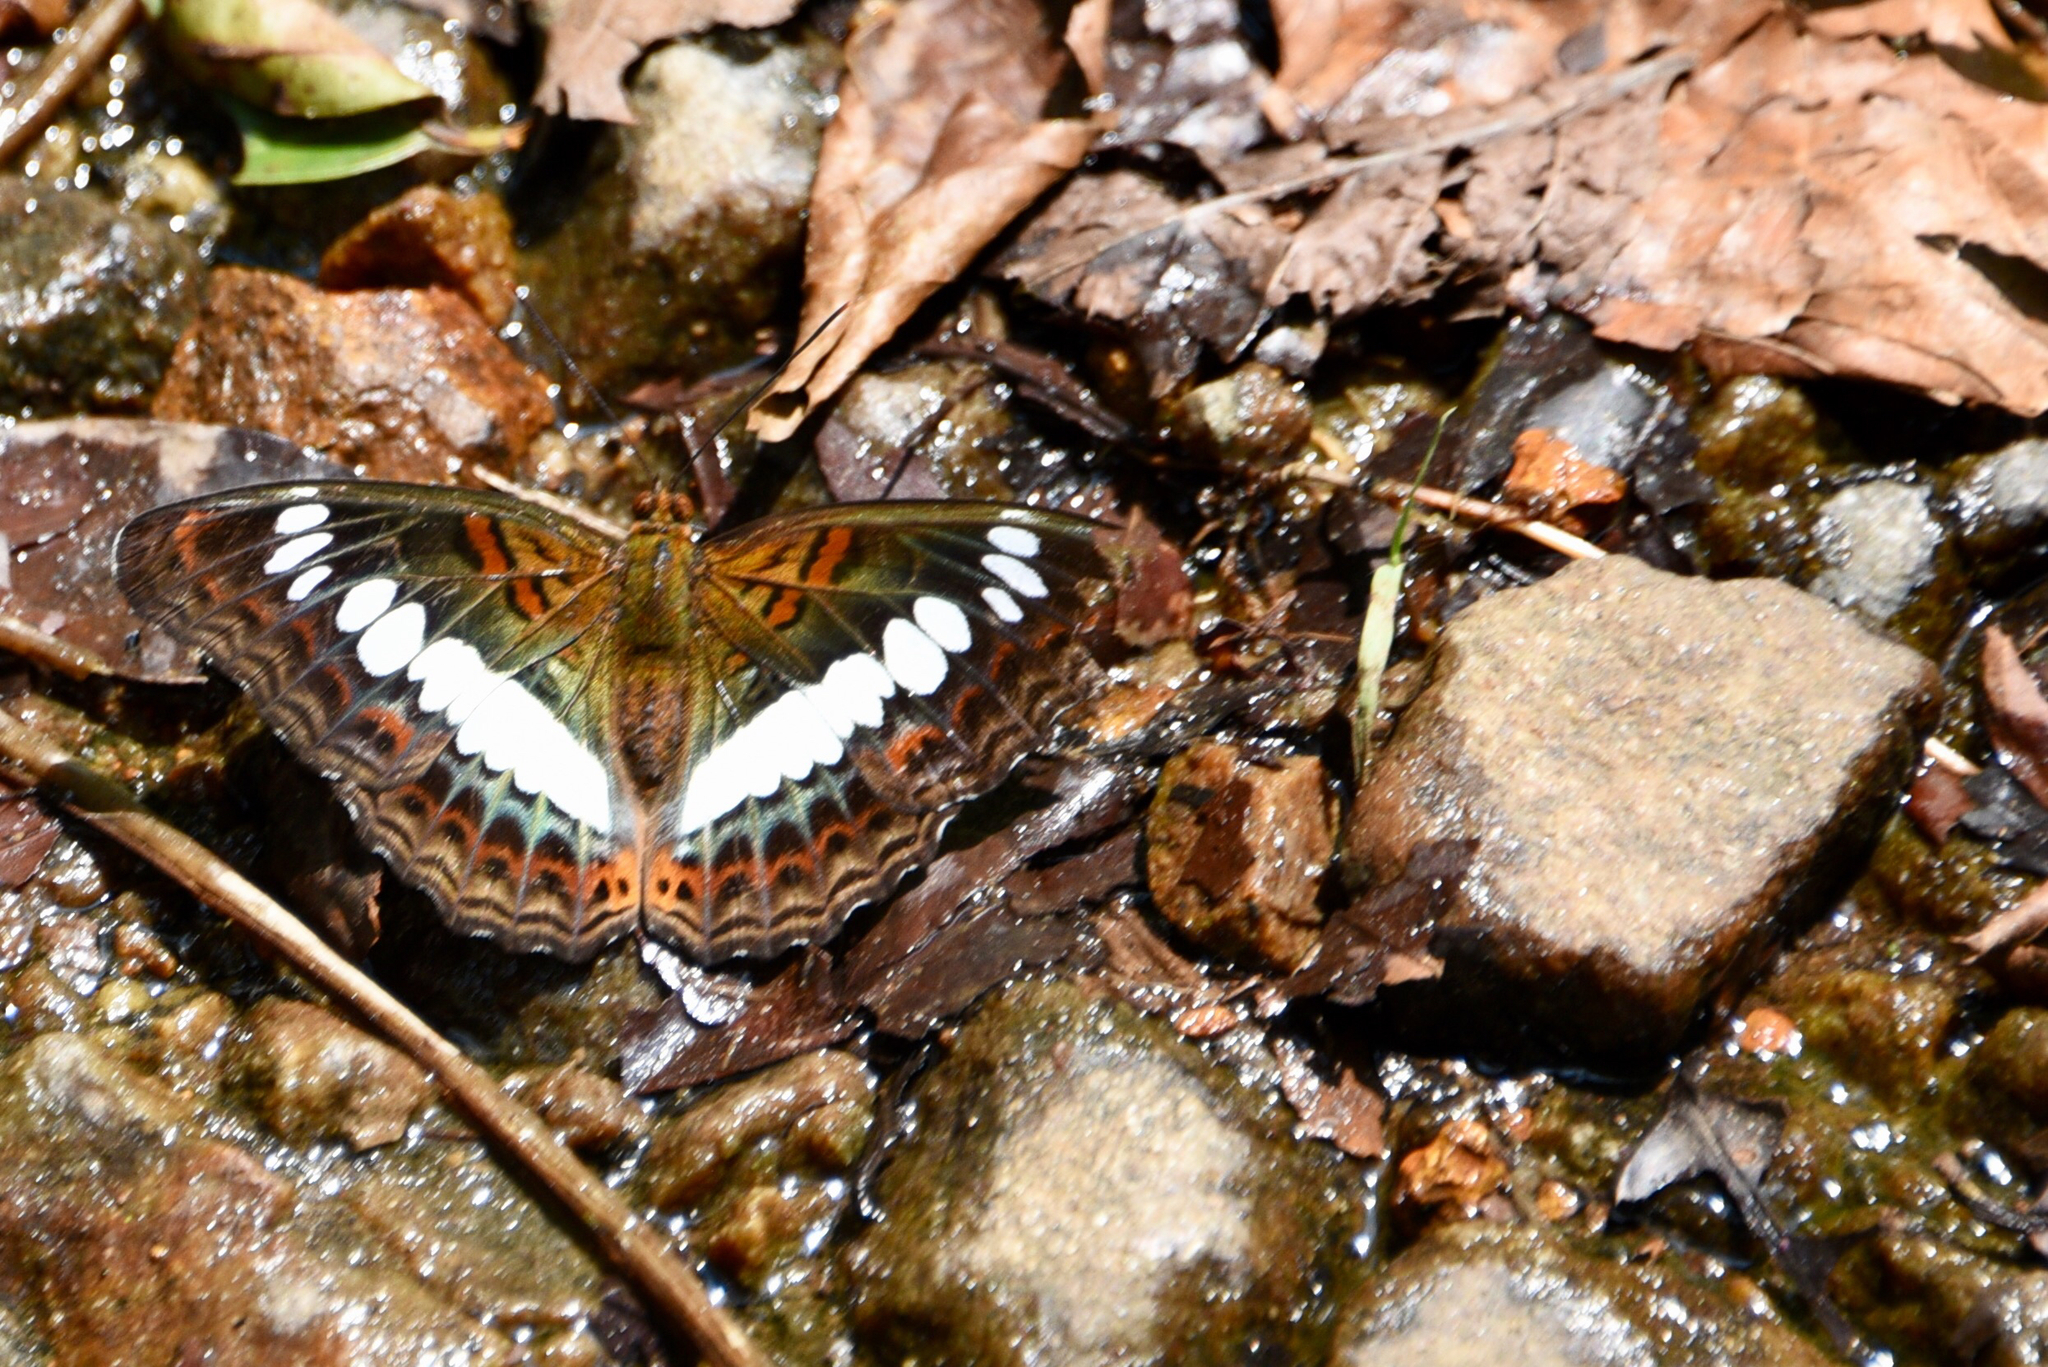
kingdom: Animalia
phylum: Arthropoda
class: Insecta
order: Lepidoptera
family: Nymphalidae
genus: Limenitis
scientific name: Limenitis Moduza procris
